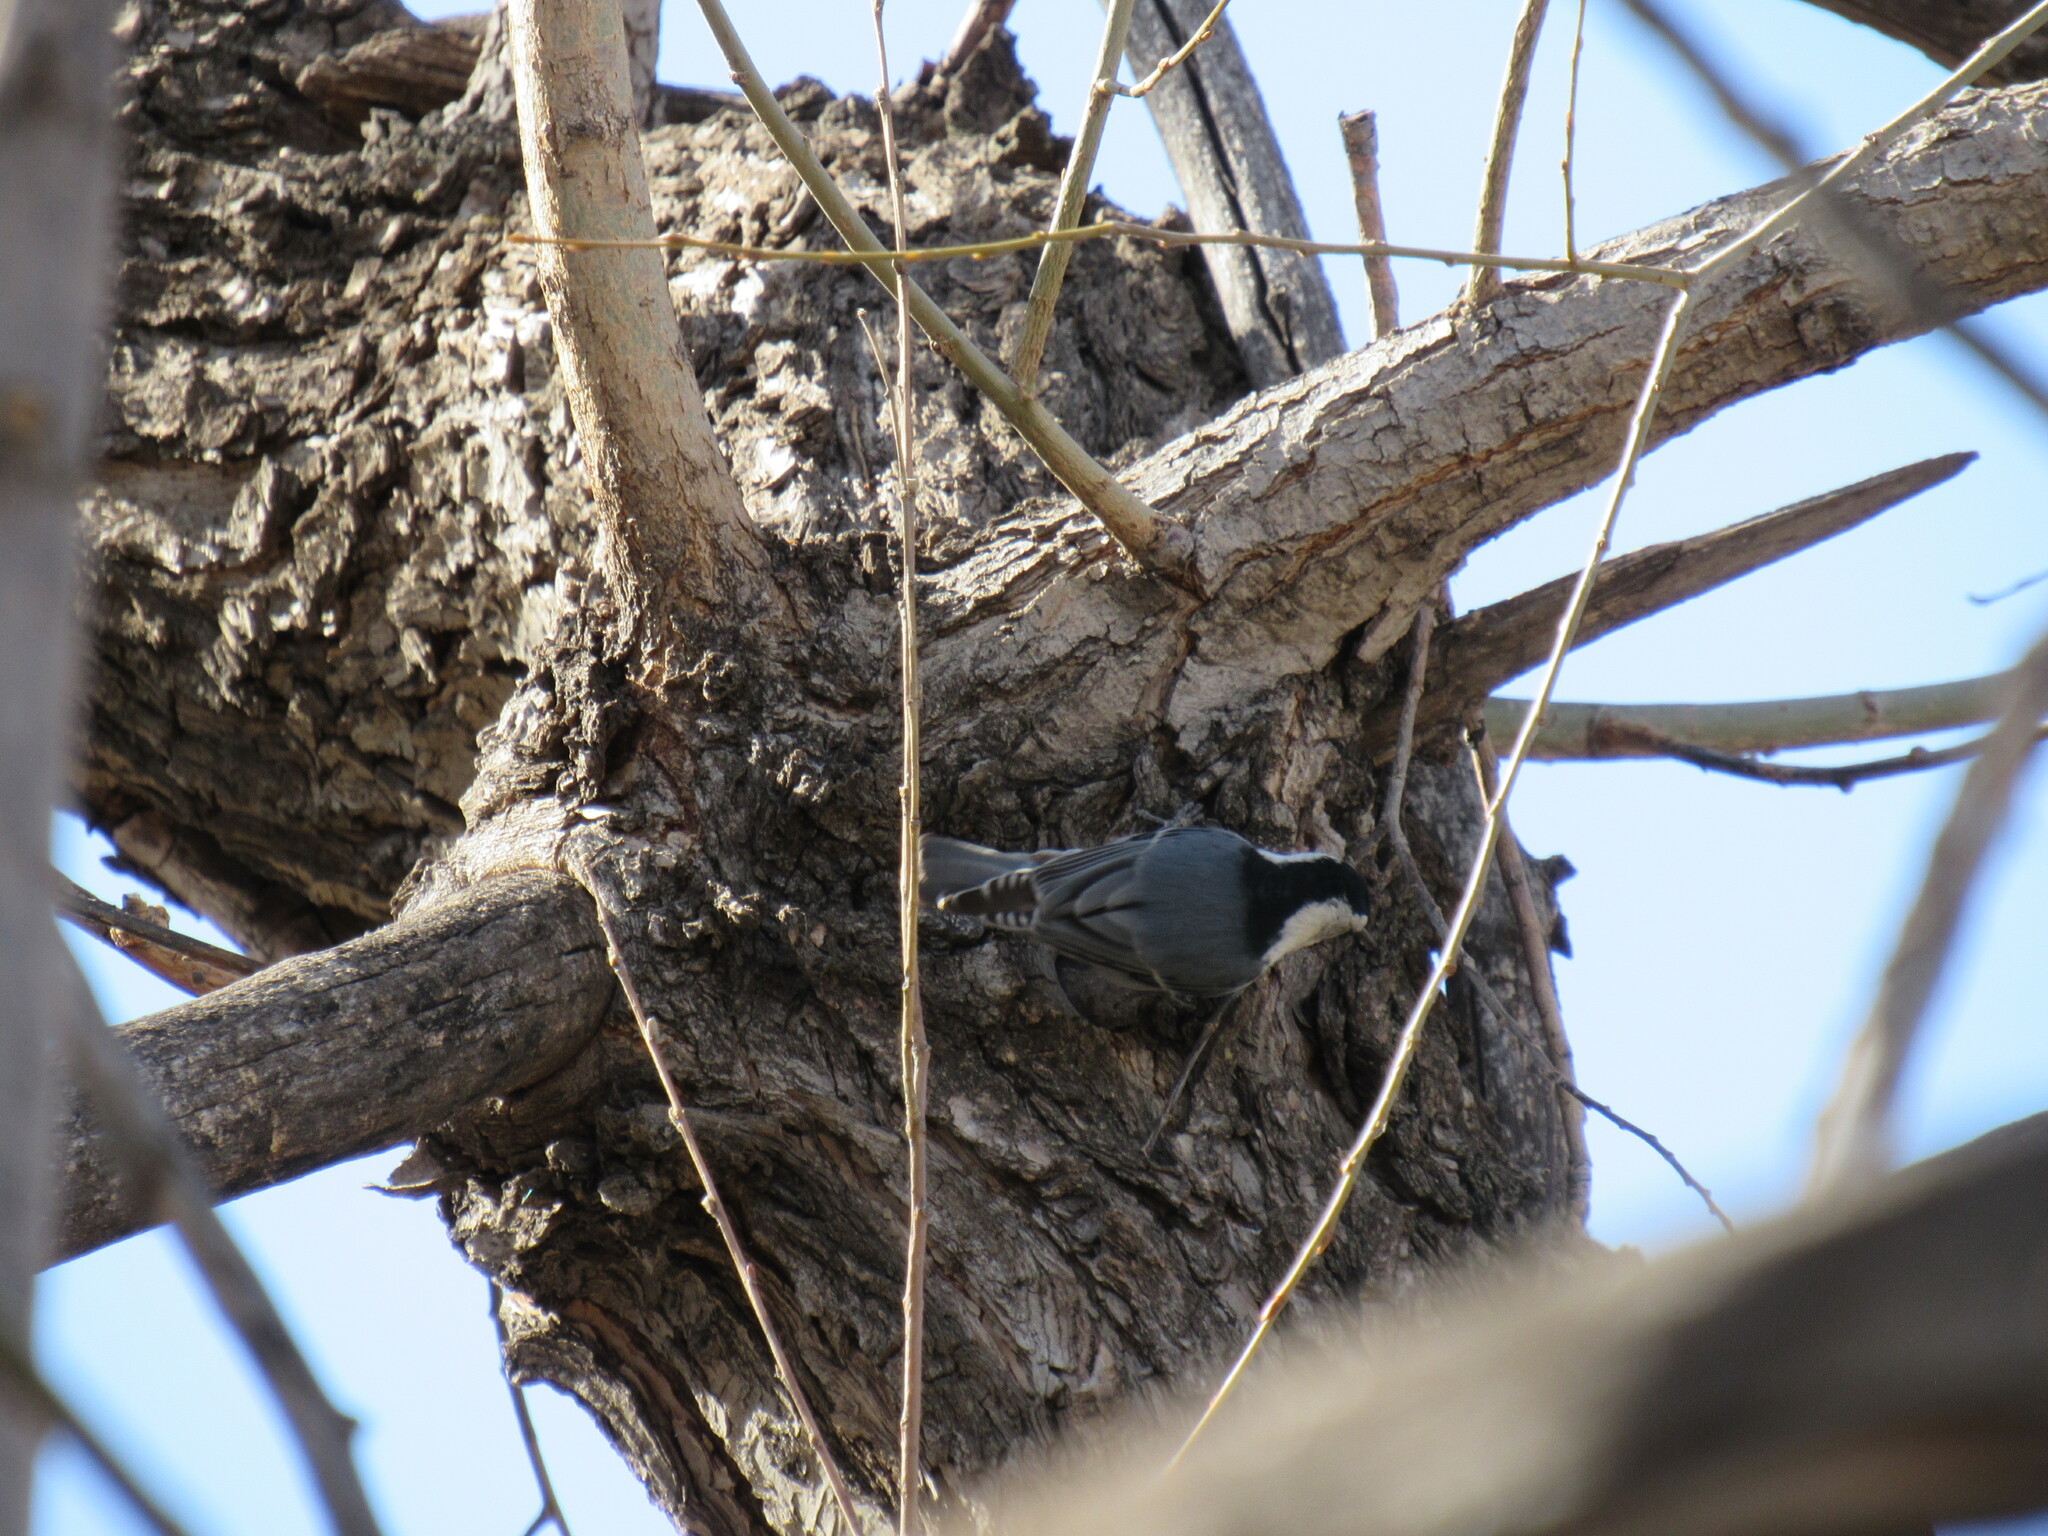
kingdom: Animalia
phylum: Chordata
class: Aves
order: Passeriformes
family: Sittidae
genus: Sitta
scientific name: Sitta carolinensis
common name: White-breasted nuthatch
